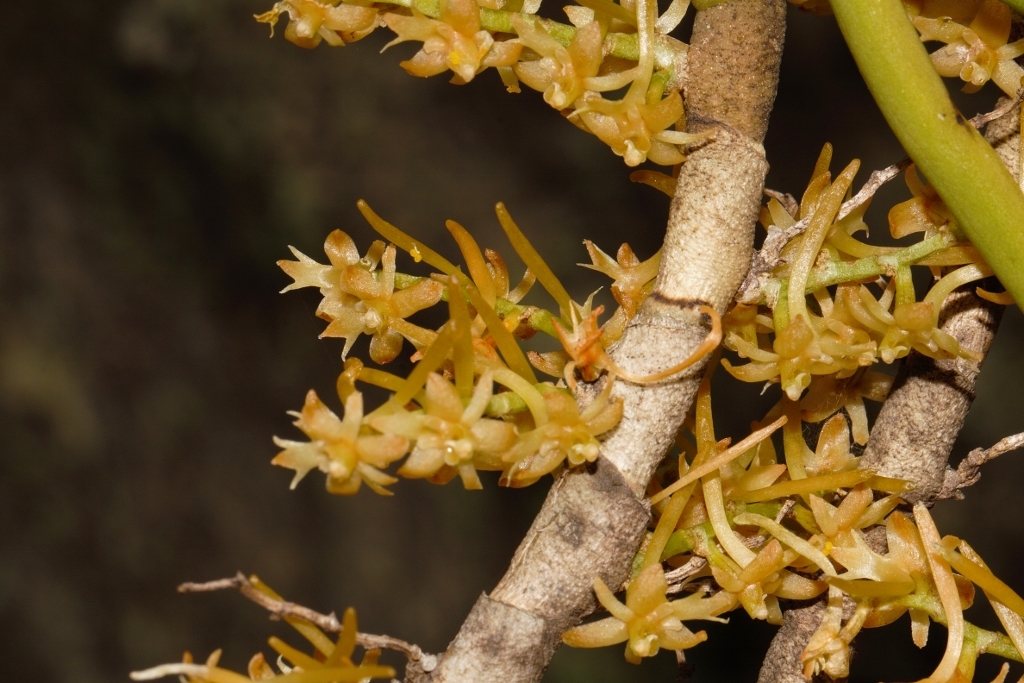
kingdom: Plantae
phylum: Tracheophyta
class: Liliopsida
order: Asparagales
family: Orchidaceae
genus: Tridactyle
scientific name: Tridactyle tridentata
